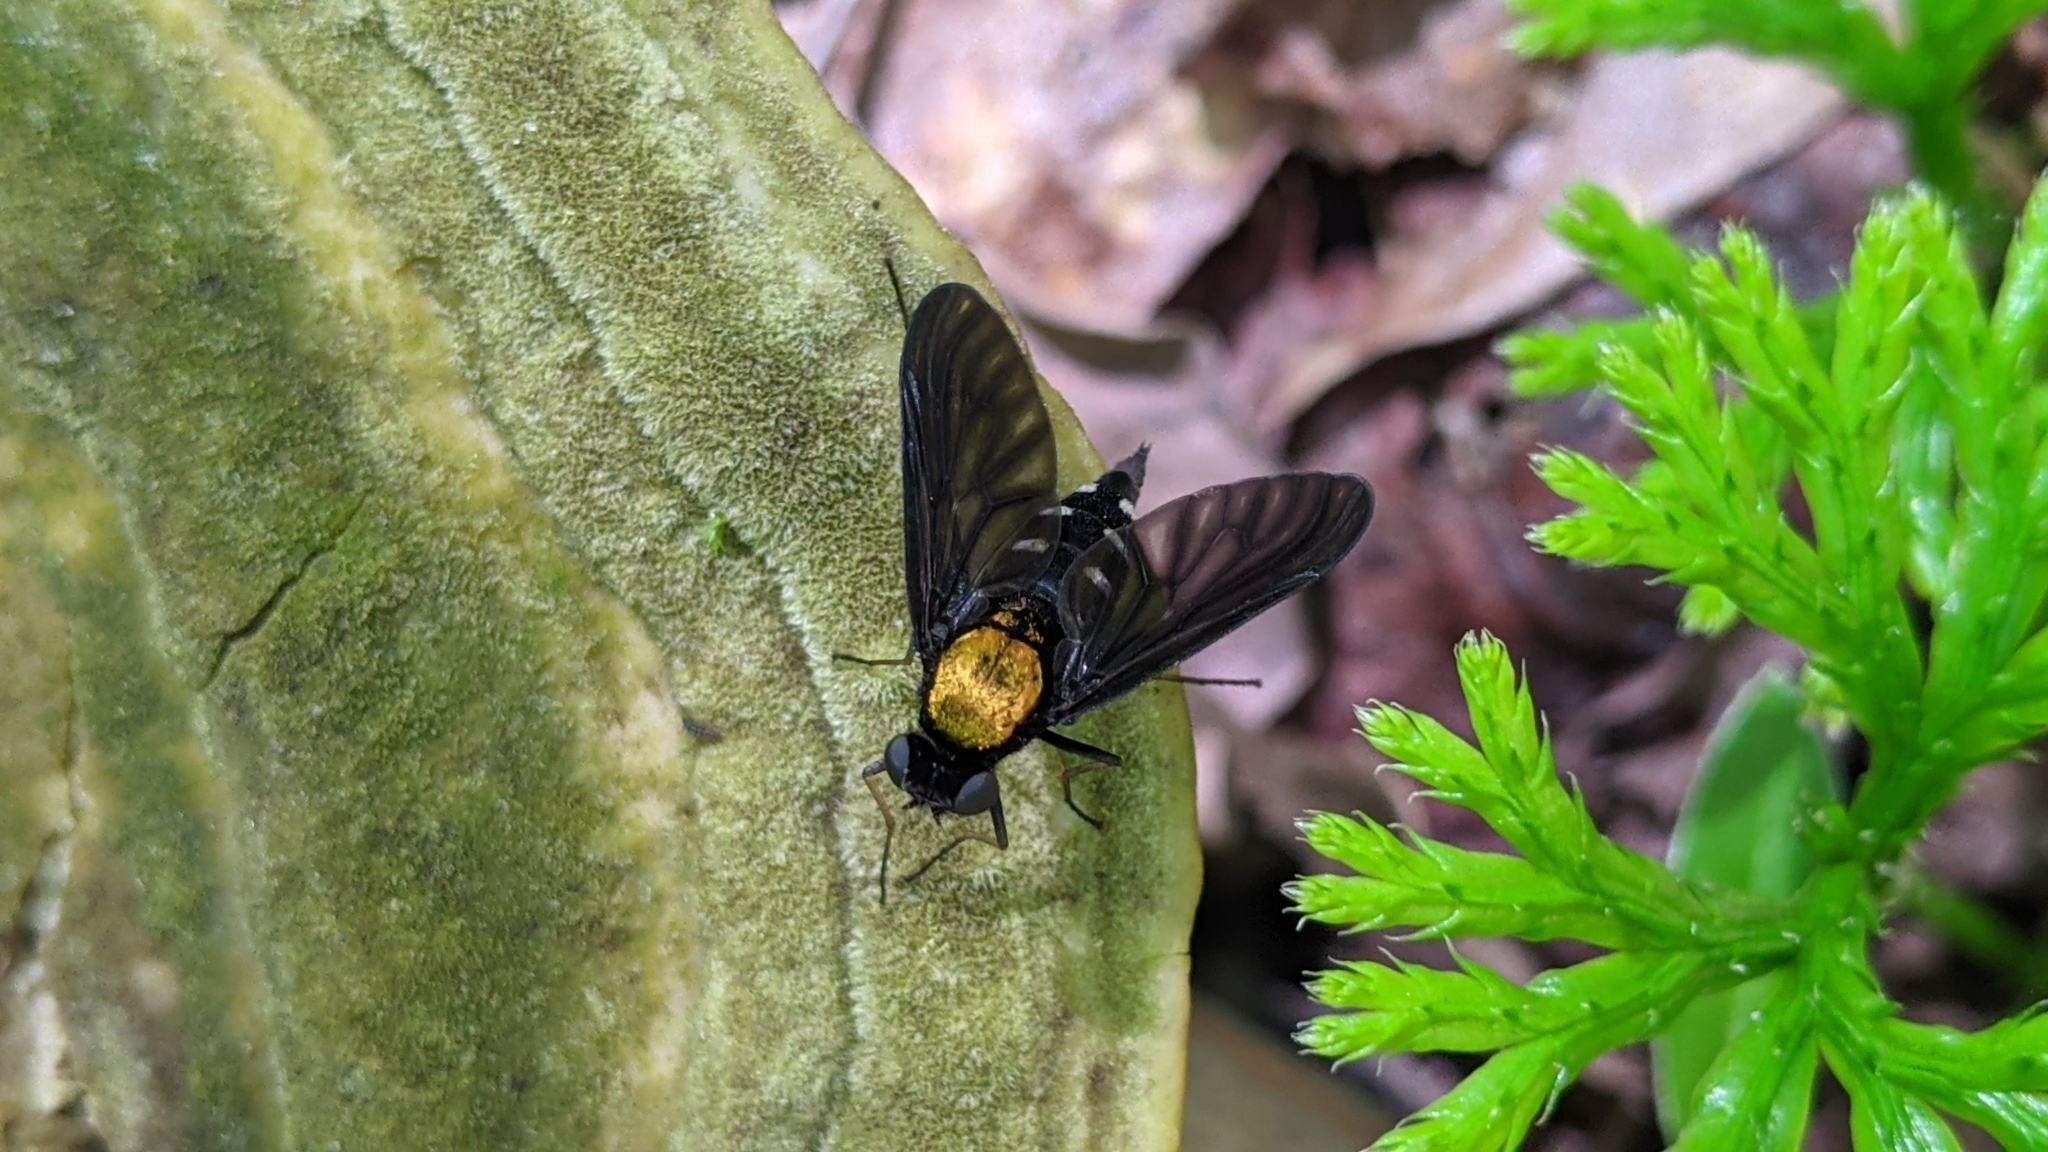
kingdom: Animalia
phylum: Arthropoda
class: Insecta
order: Diptera
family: Rhagionidae
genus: Chrysopilus
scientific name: Chrysopilus thoracicus
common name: Golden-backed snipe fly
